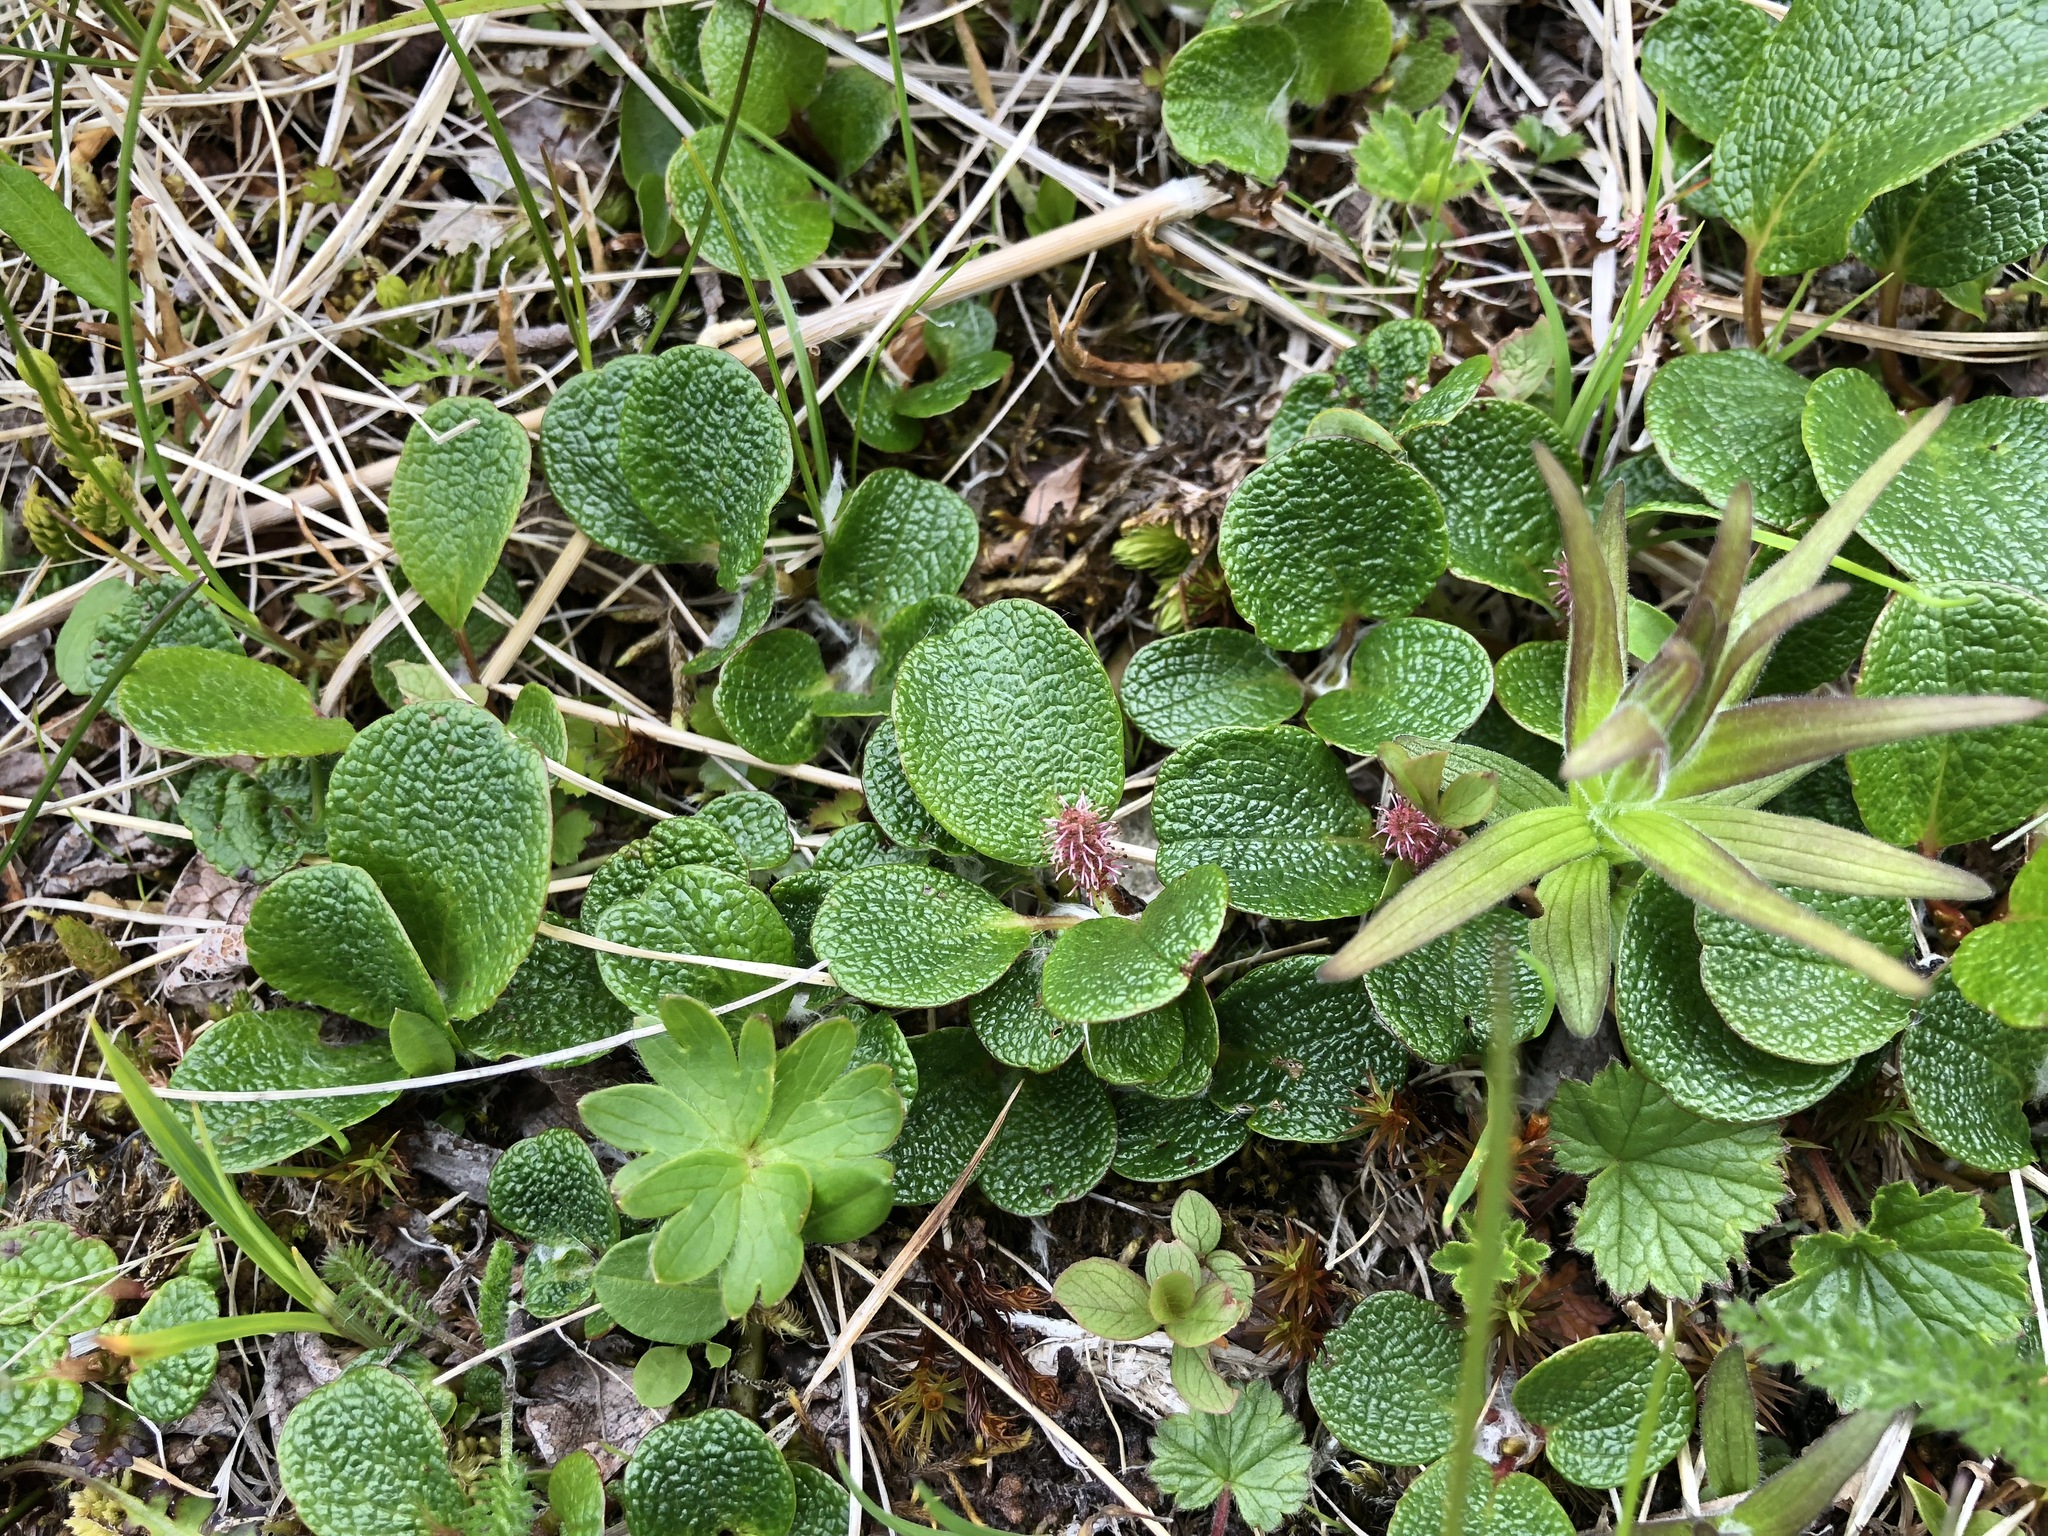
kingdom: Plantae
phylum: Tracheophyta
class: Magnoliopsida
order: Malpighiales
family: Salicaceae
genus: Salix
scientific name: Salix reticulata
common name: Net-leaved willow
